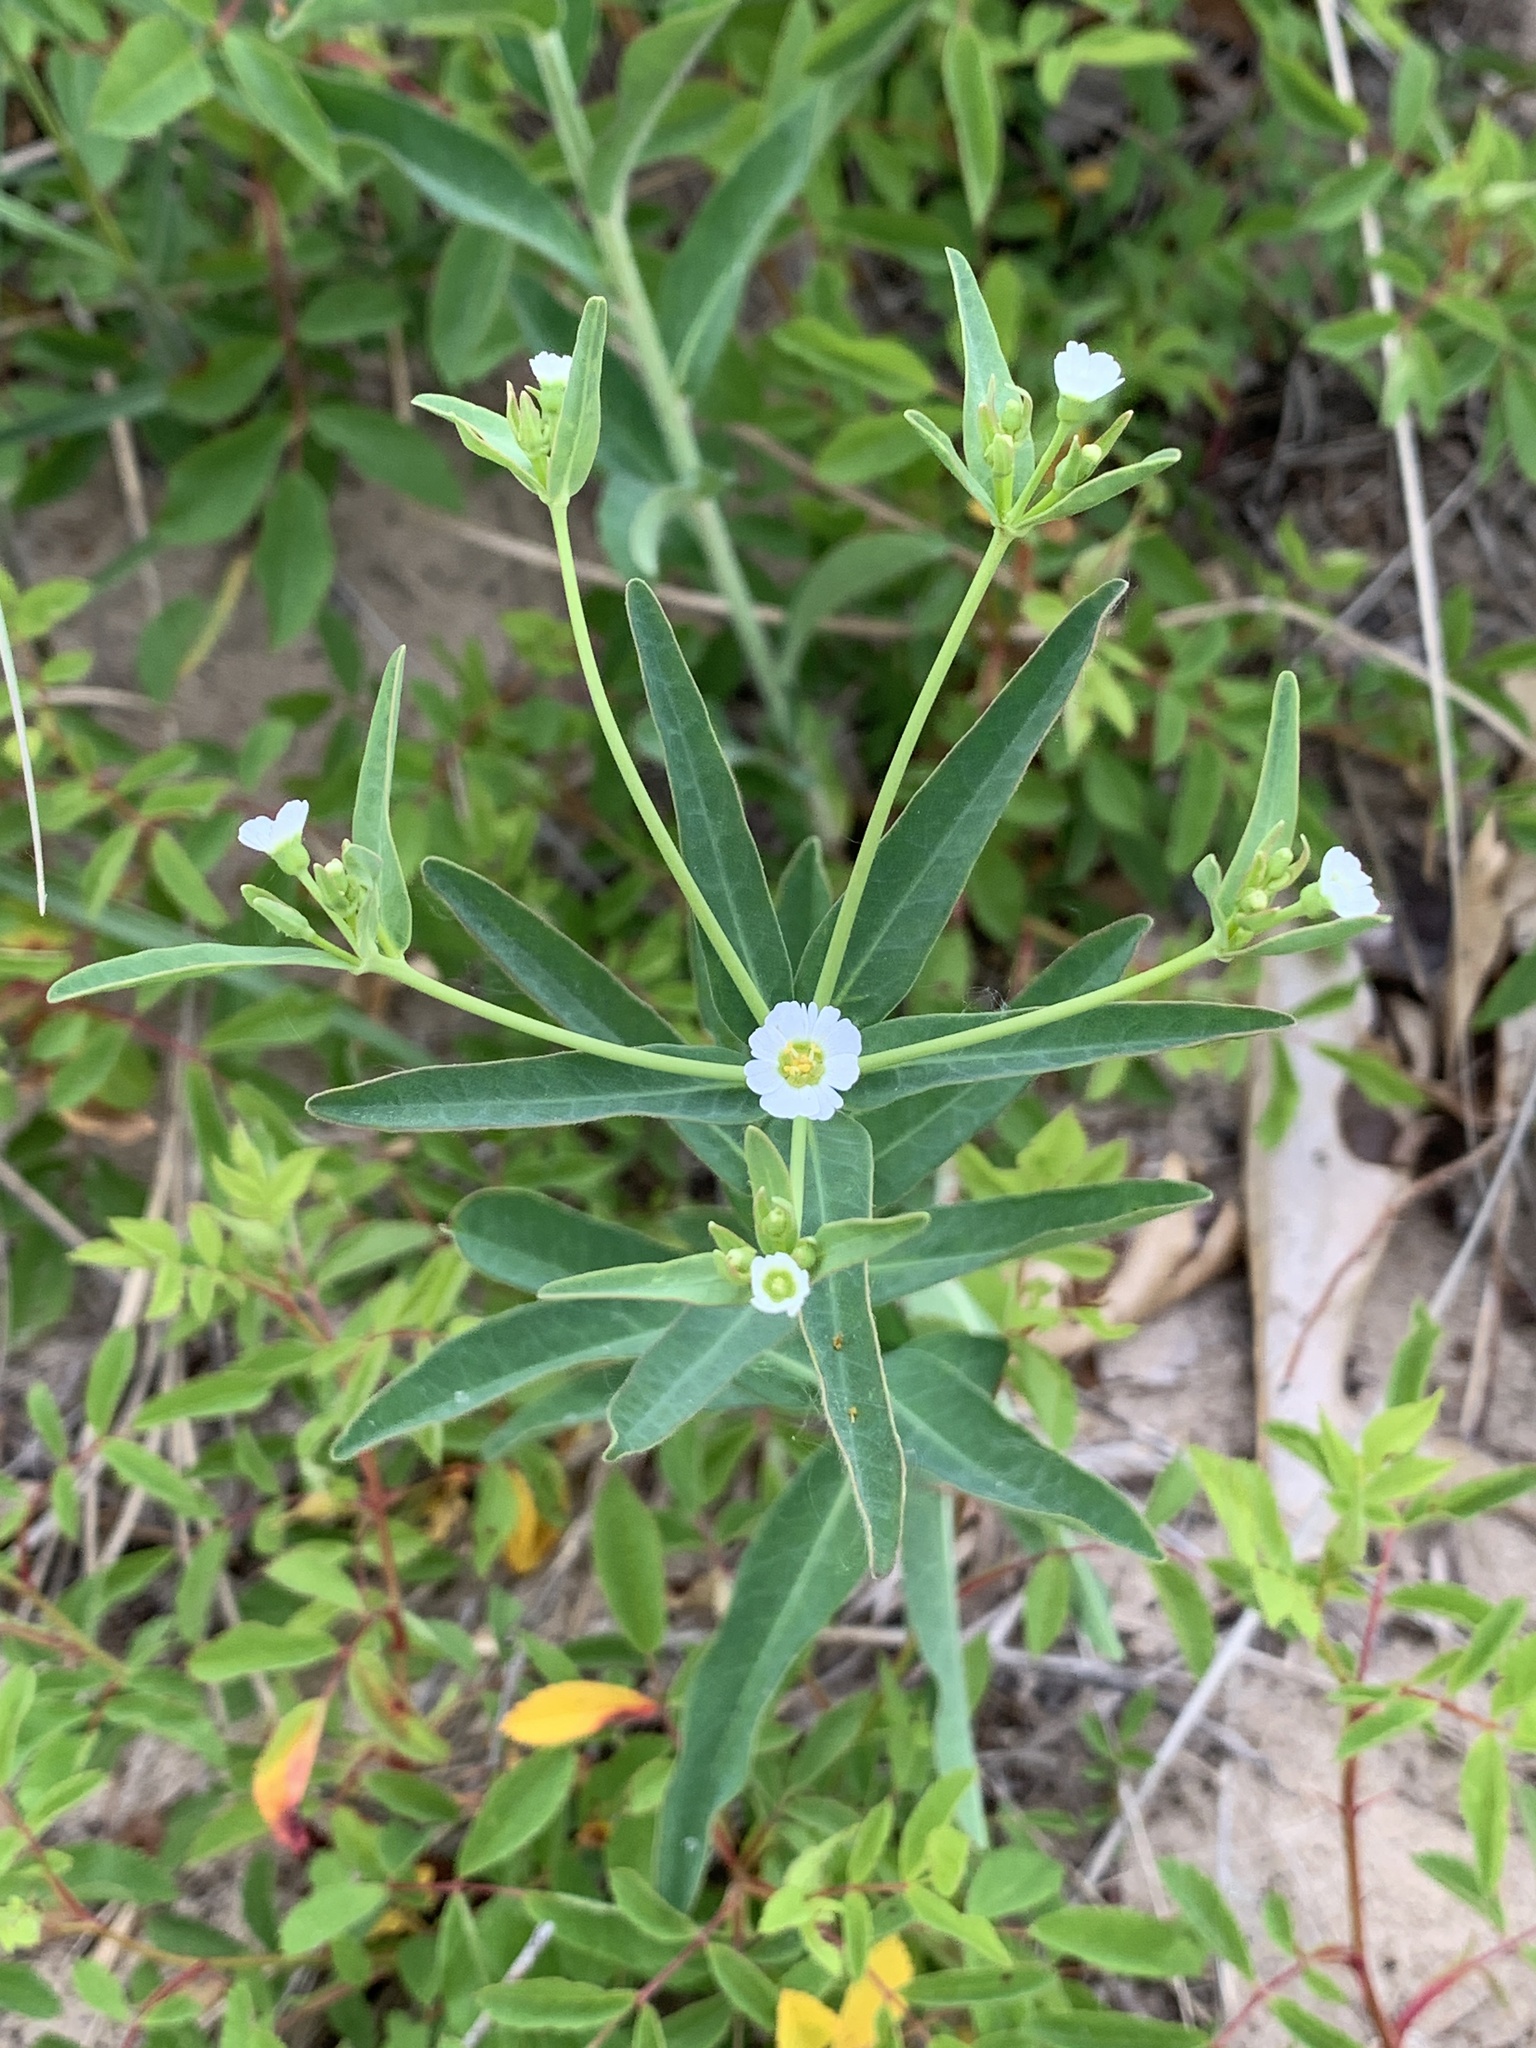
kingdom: Plantae
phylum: Tracheophyta
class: Magnoliopsida
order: Malpighiales
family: Euphorbiaceae
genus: Euphorbia
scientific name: Euphorbia corollata
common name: Flowering spurge
